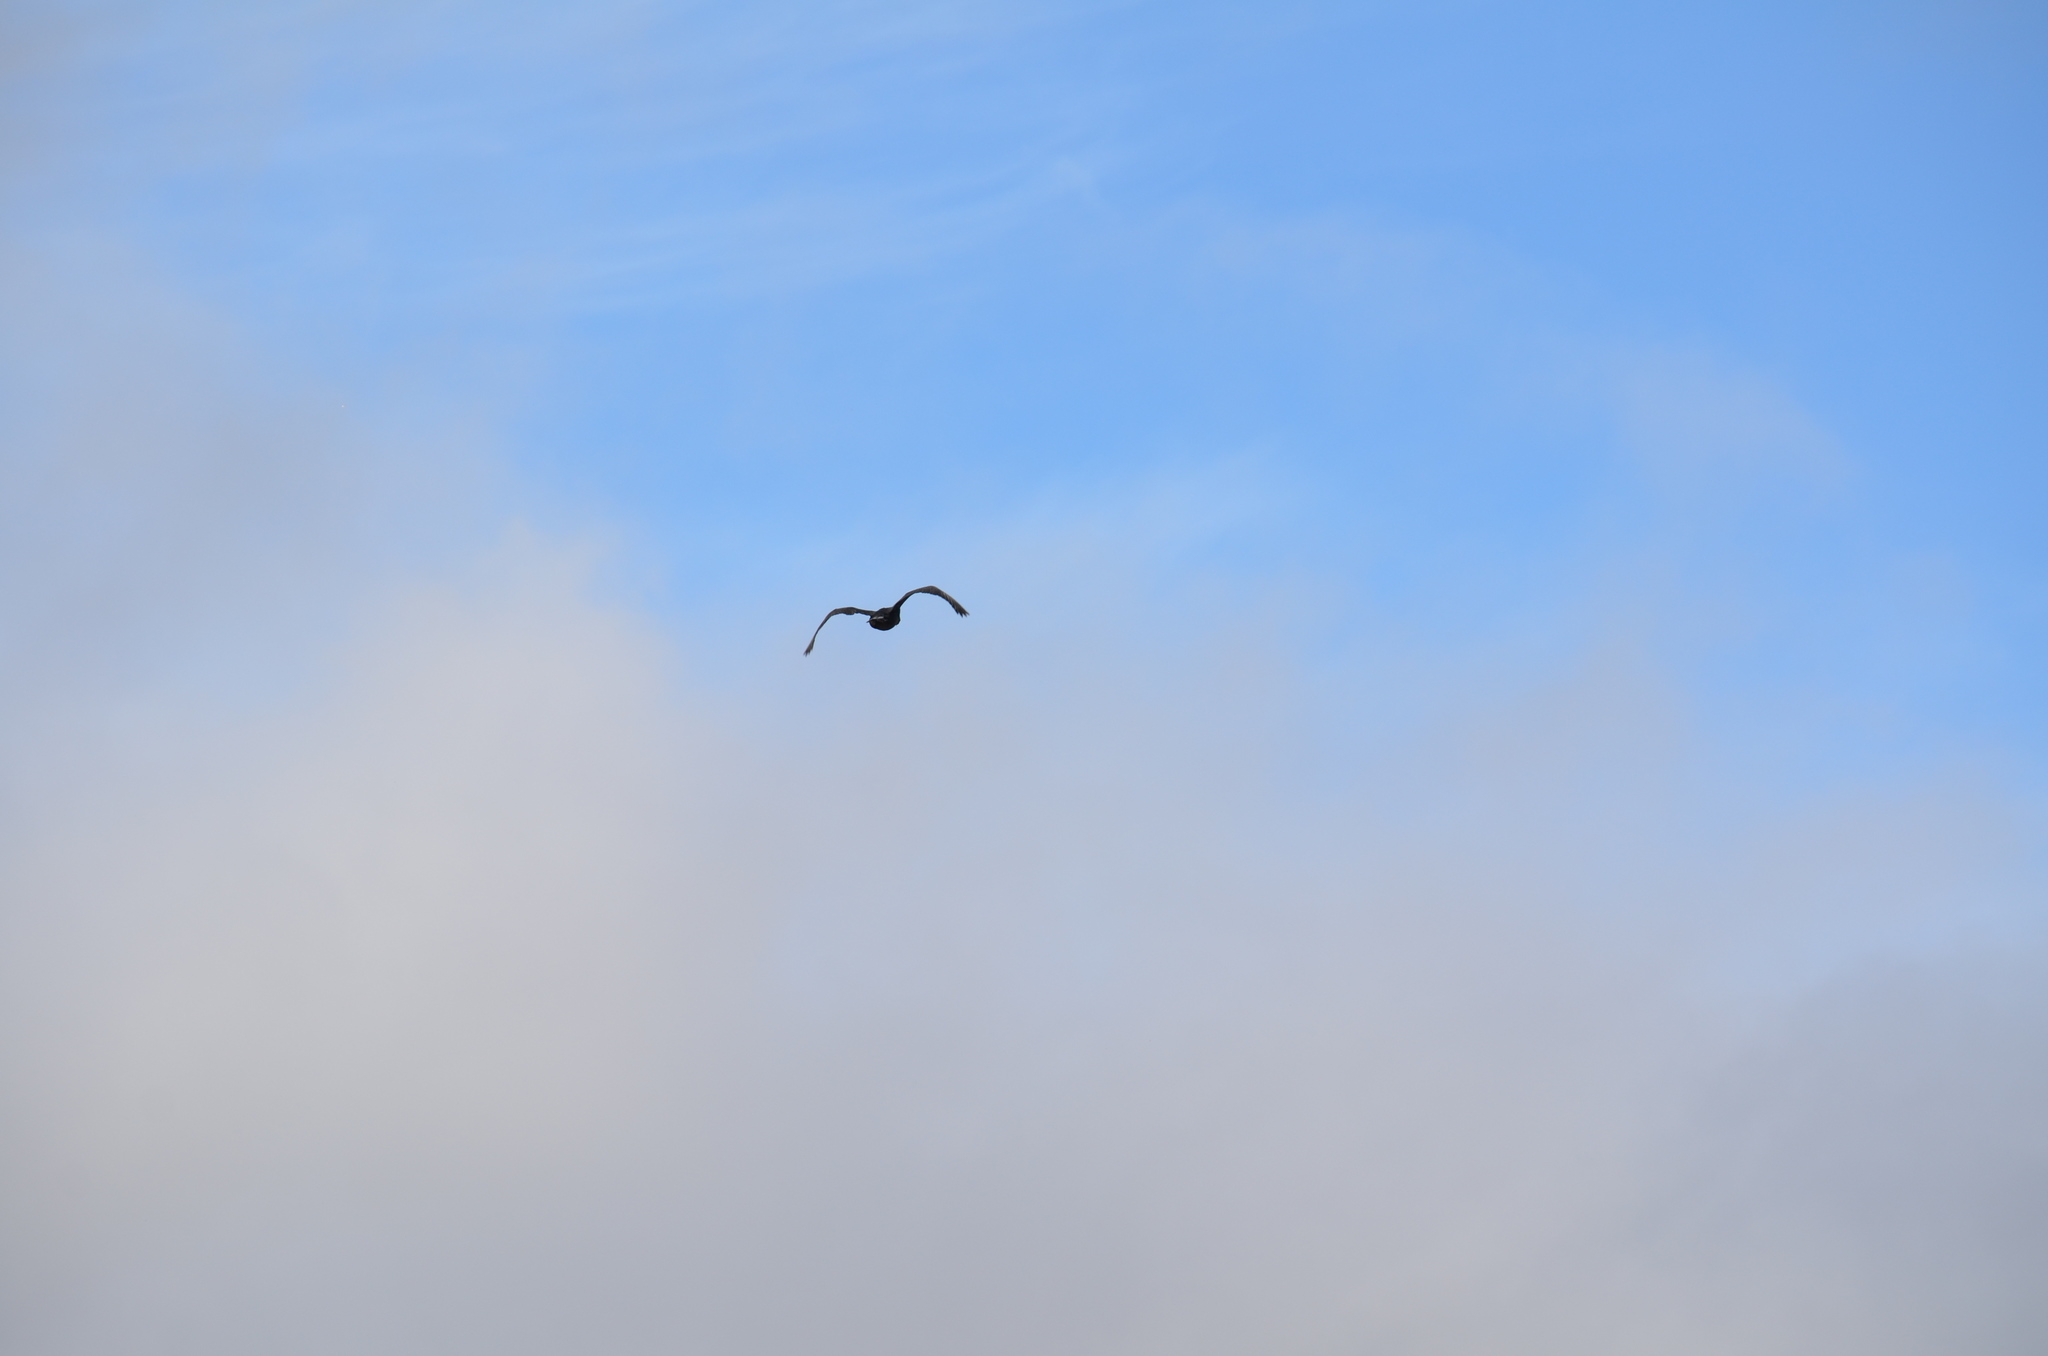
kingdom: Animalia
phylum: Chordata
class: Aves
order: Suliformes
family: Phalacrocoracidae
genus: Phalacrocorax
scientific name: Phalacrocorax auritus
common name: Double-crested cormorant
